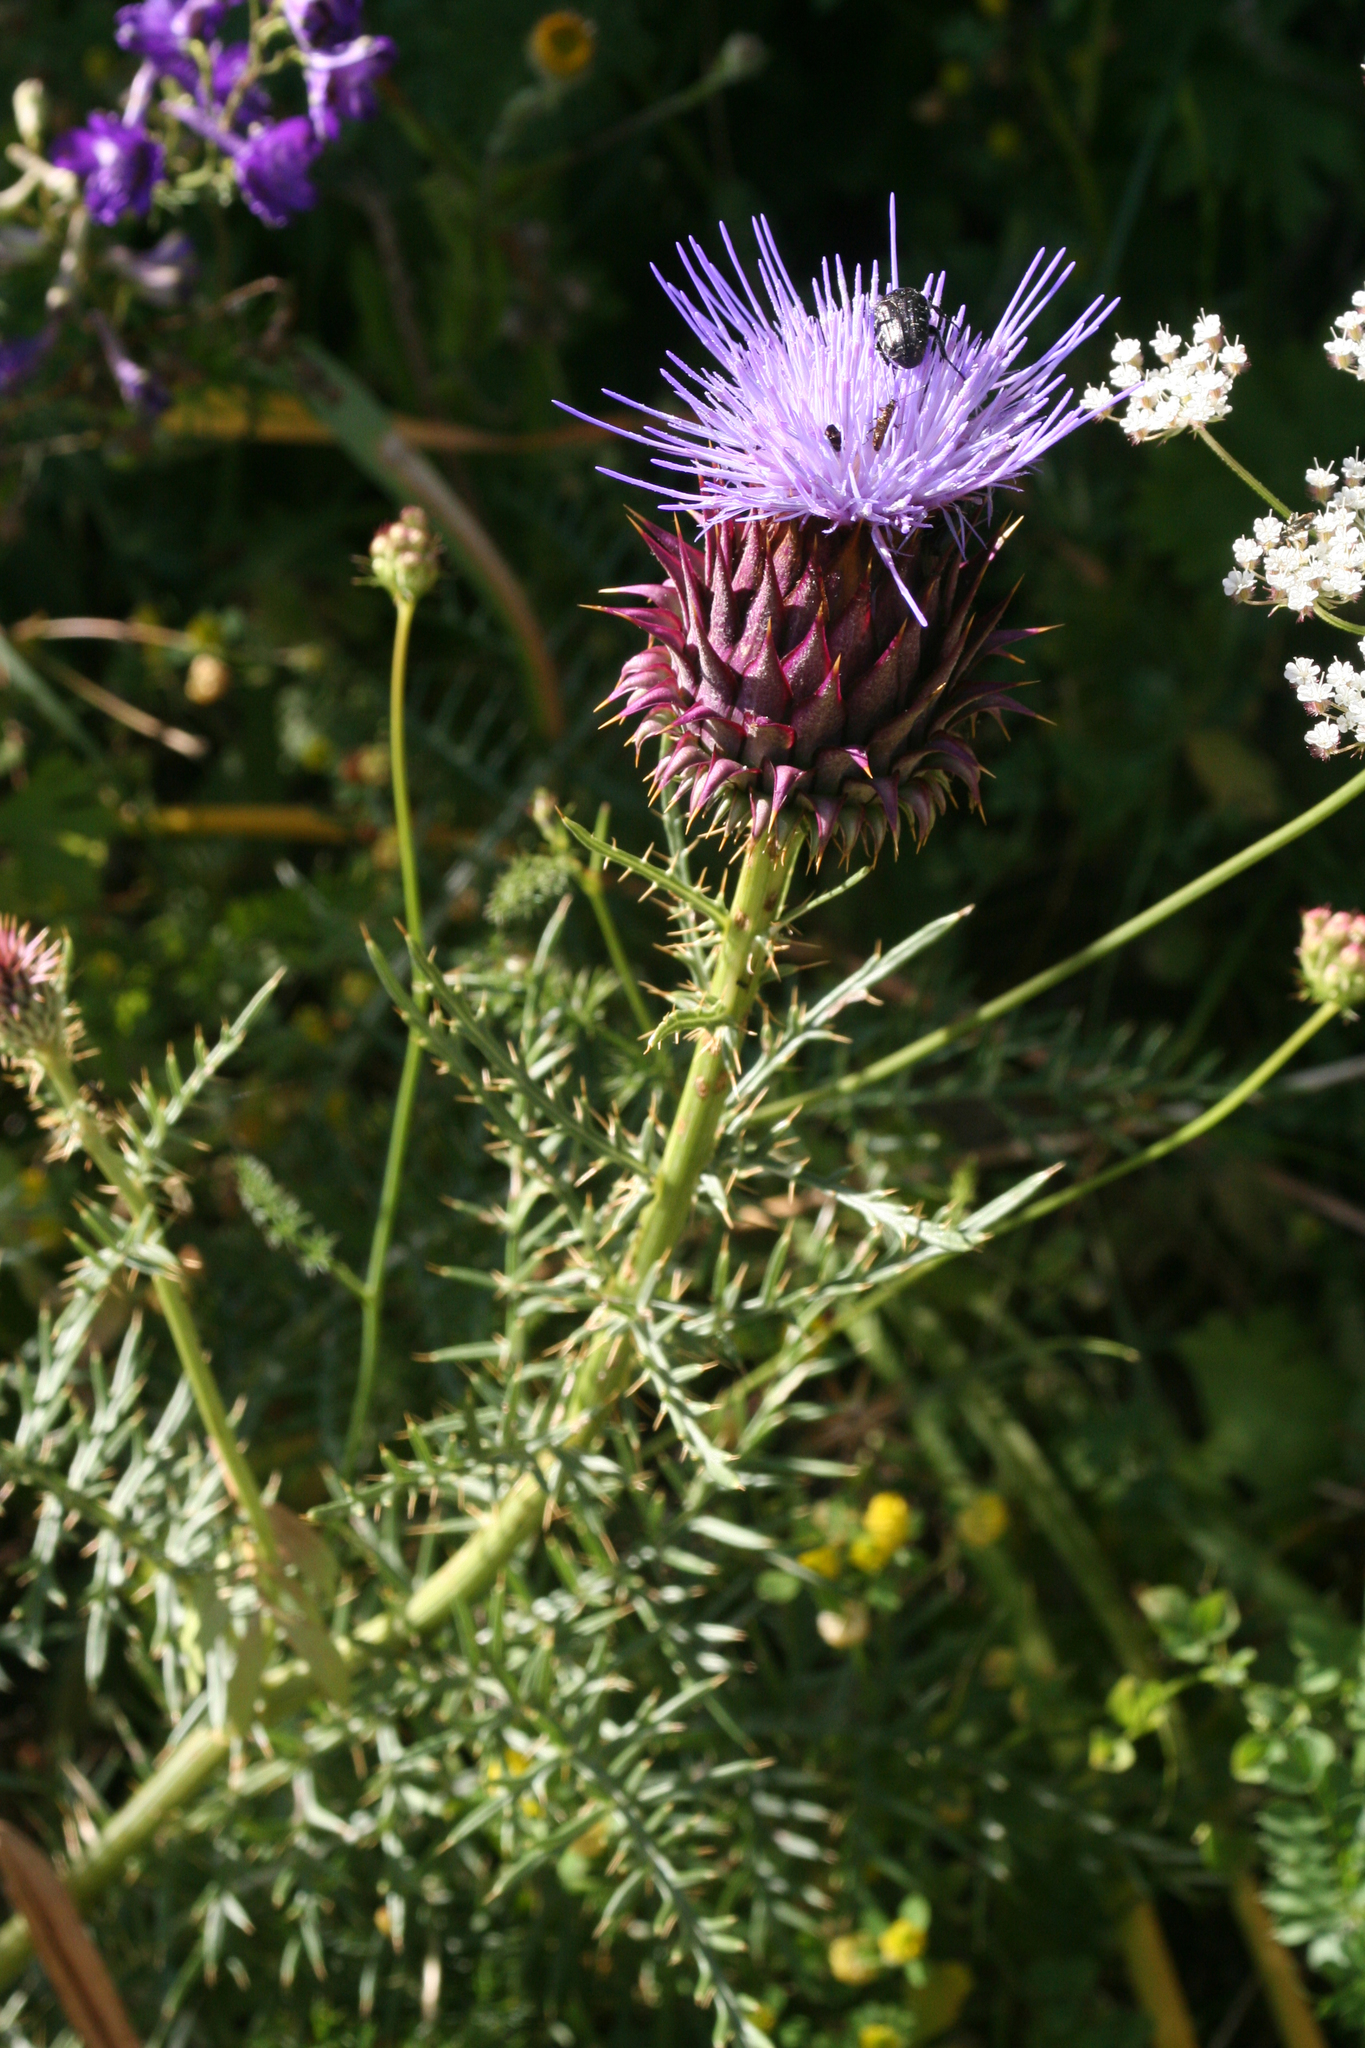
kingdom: Plantae
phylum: Tracheophyta
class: Magnoliopsida
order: Asterales
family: Asteraceae
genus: Cynara
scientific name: Cynara humilis
